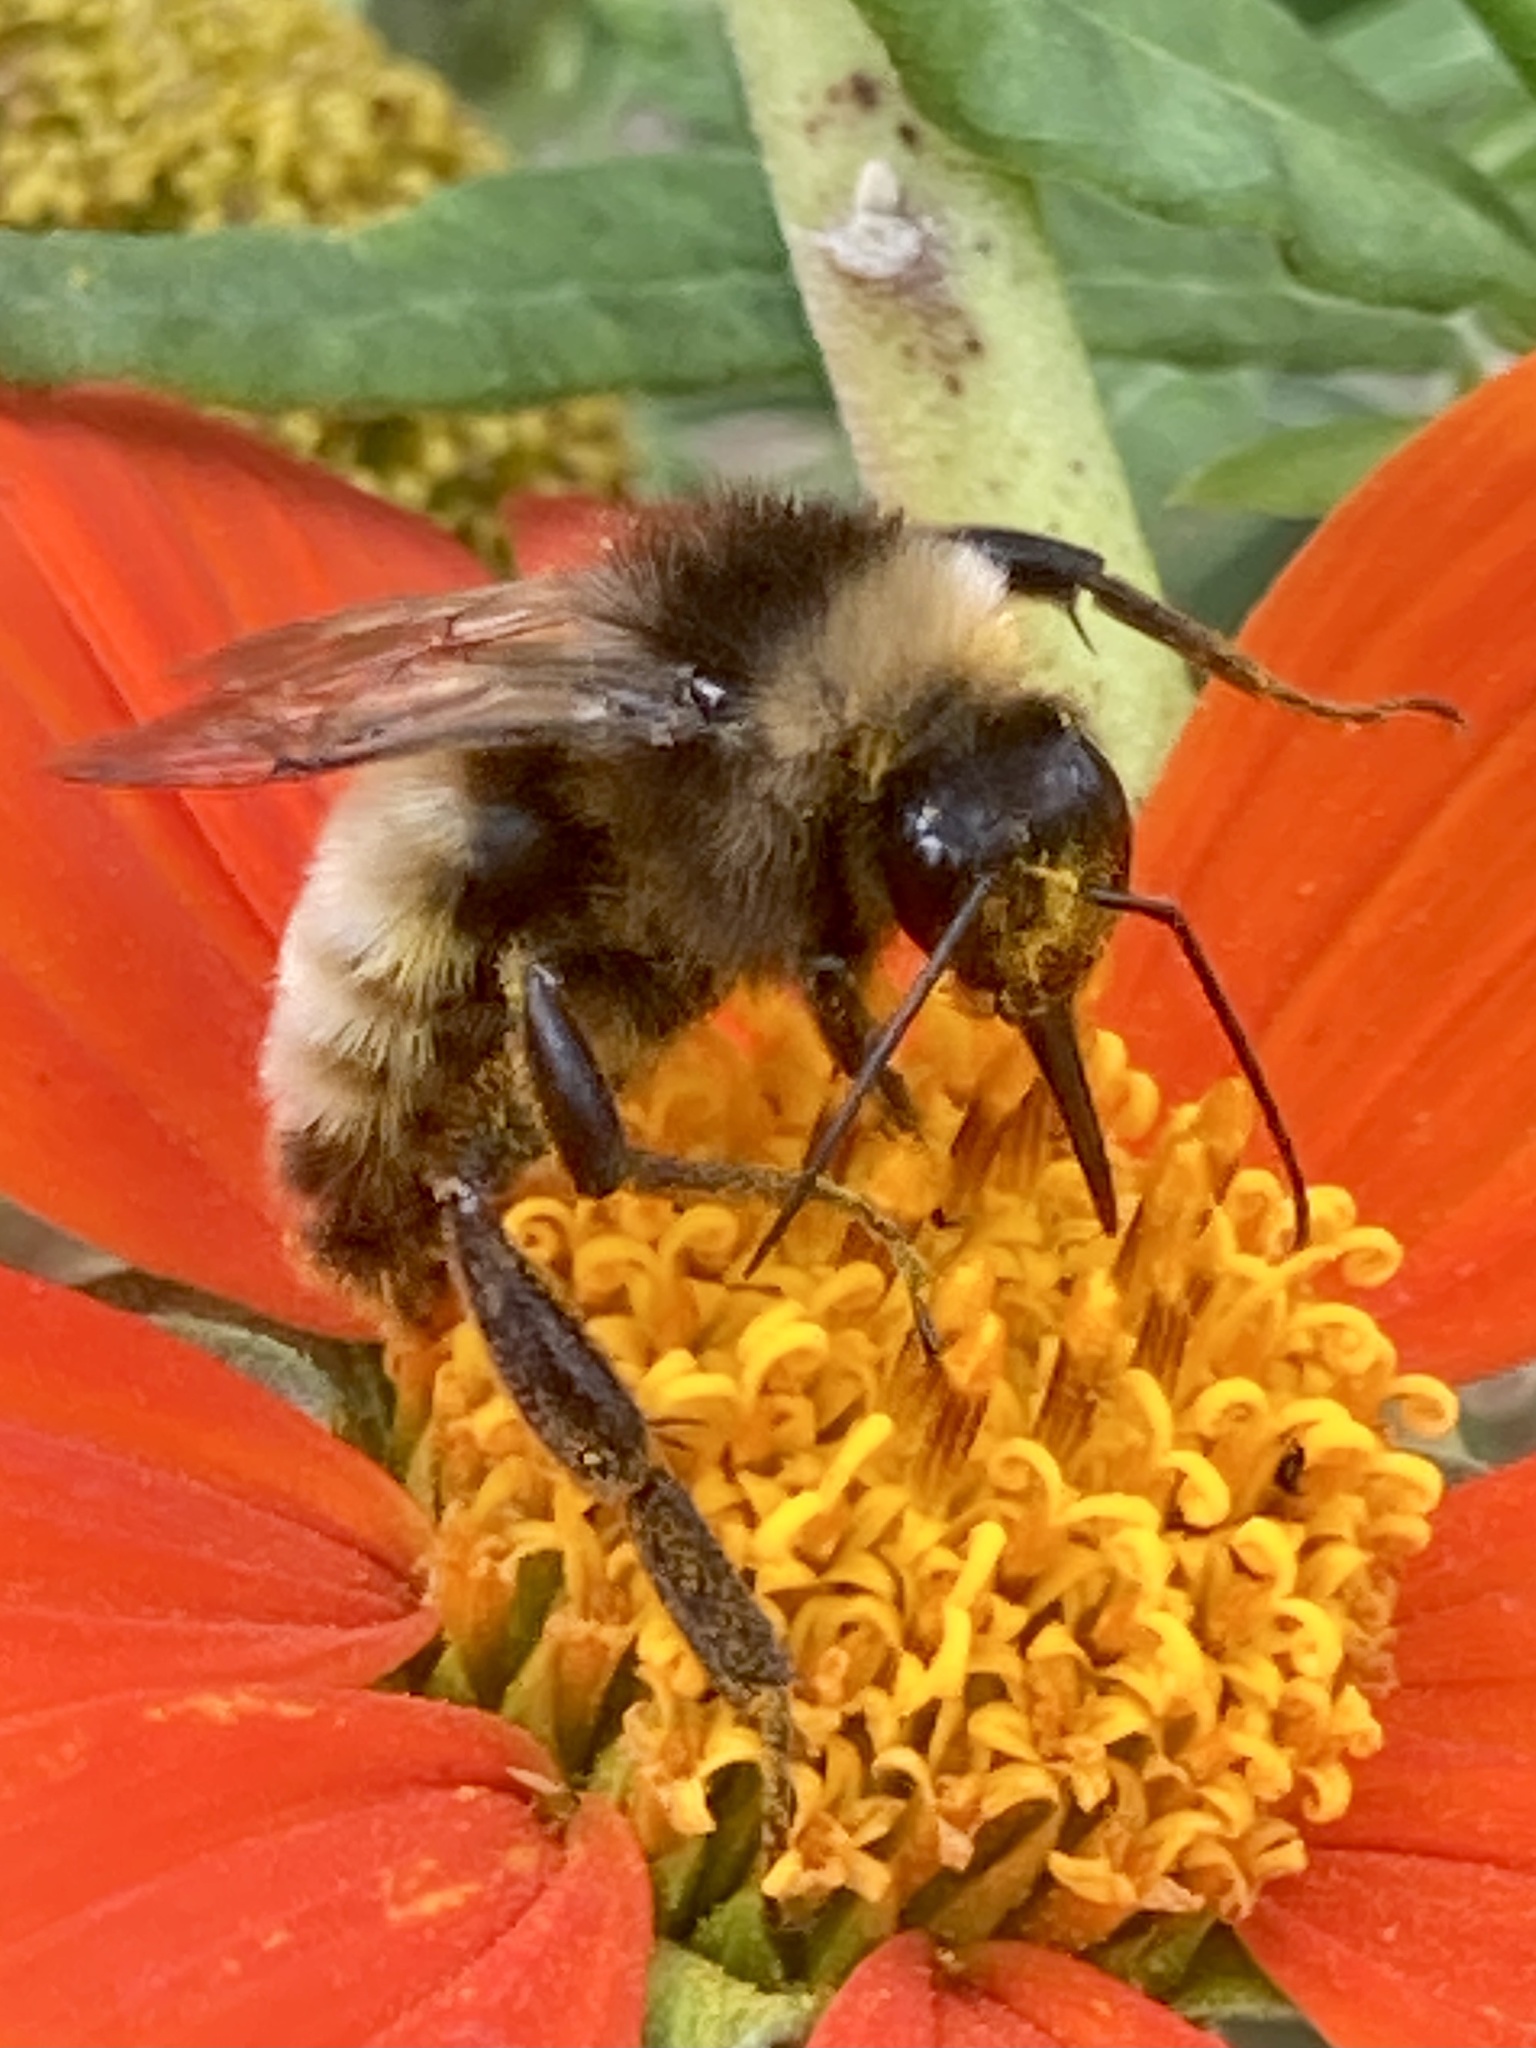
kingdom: Animalia
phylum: Arthropoda
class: Insecta
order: Hymenoptera
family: Apidae
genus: Bombus
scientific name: Bombus pensylvanicus
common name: Bumble bee
